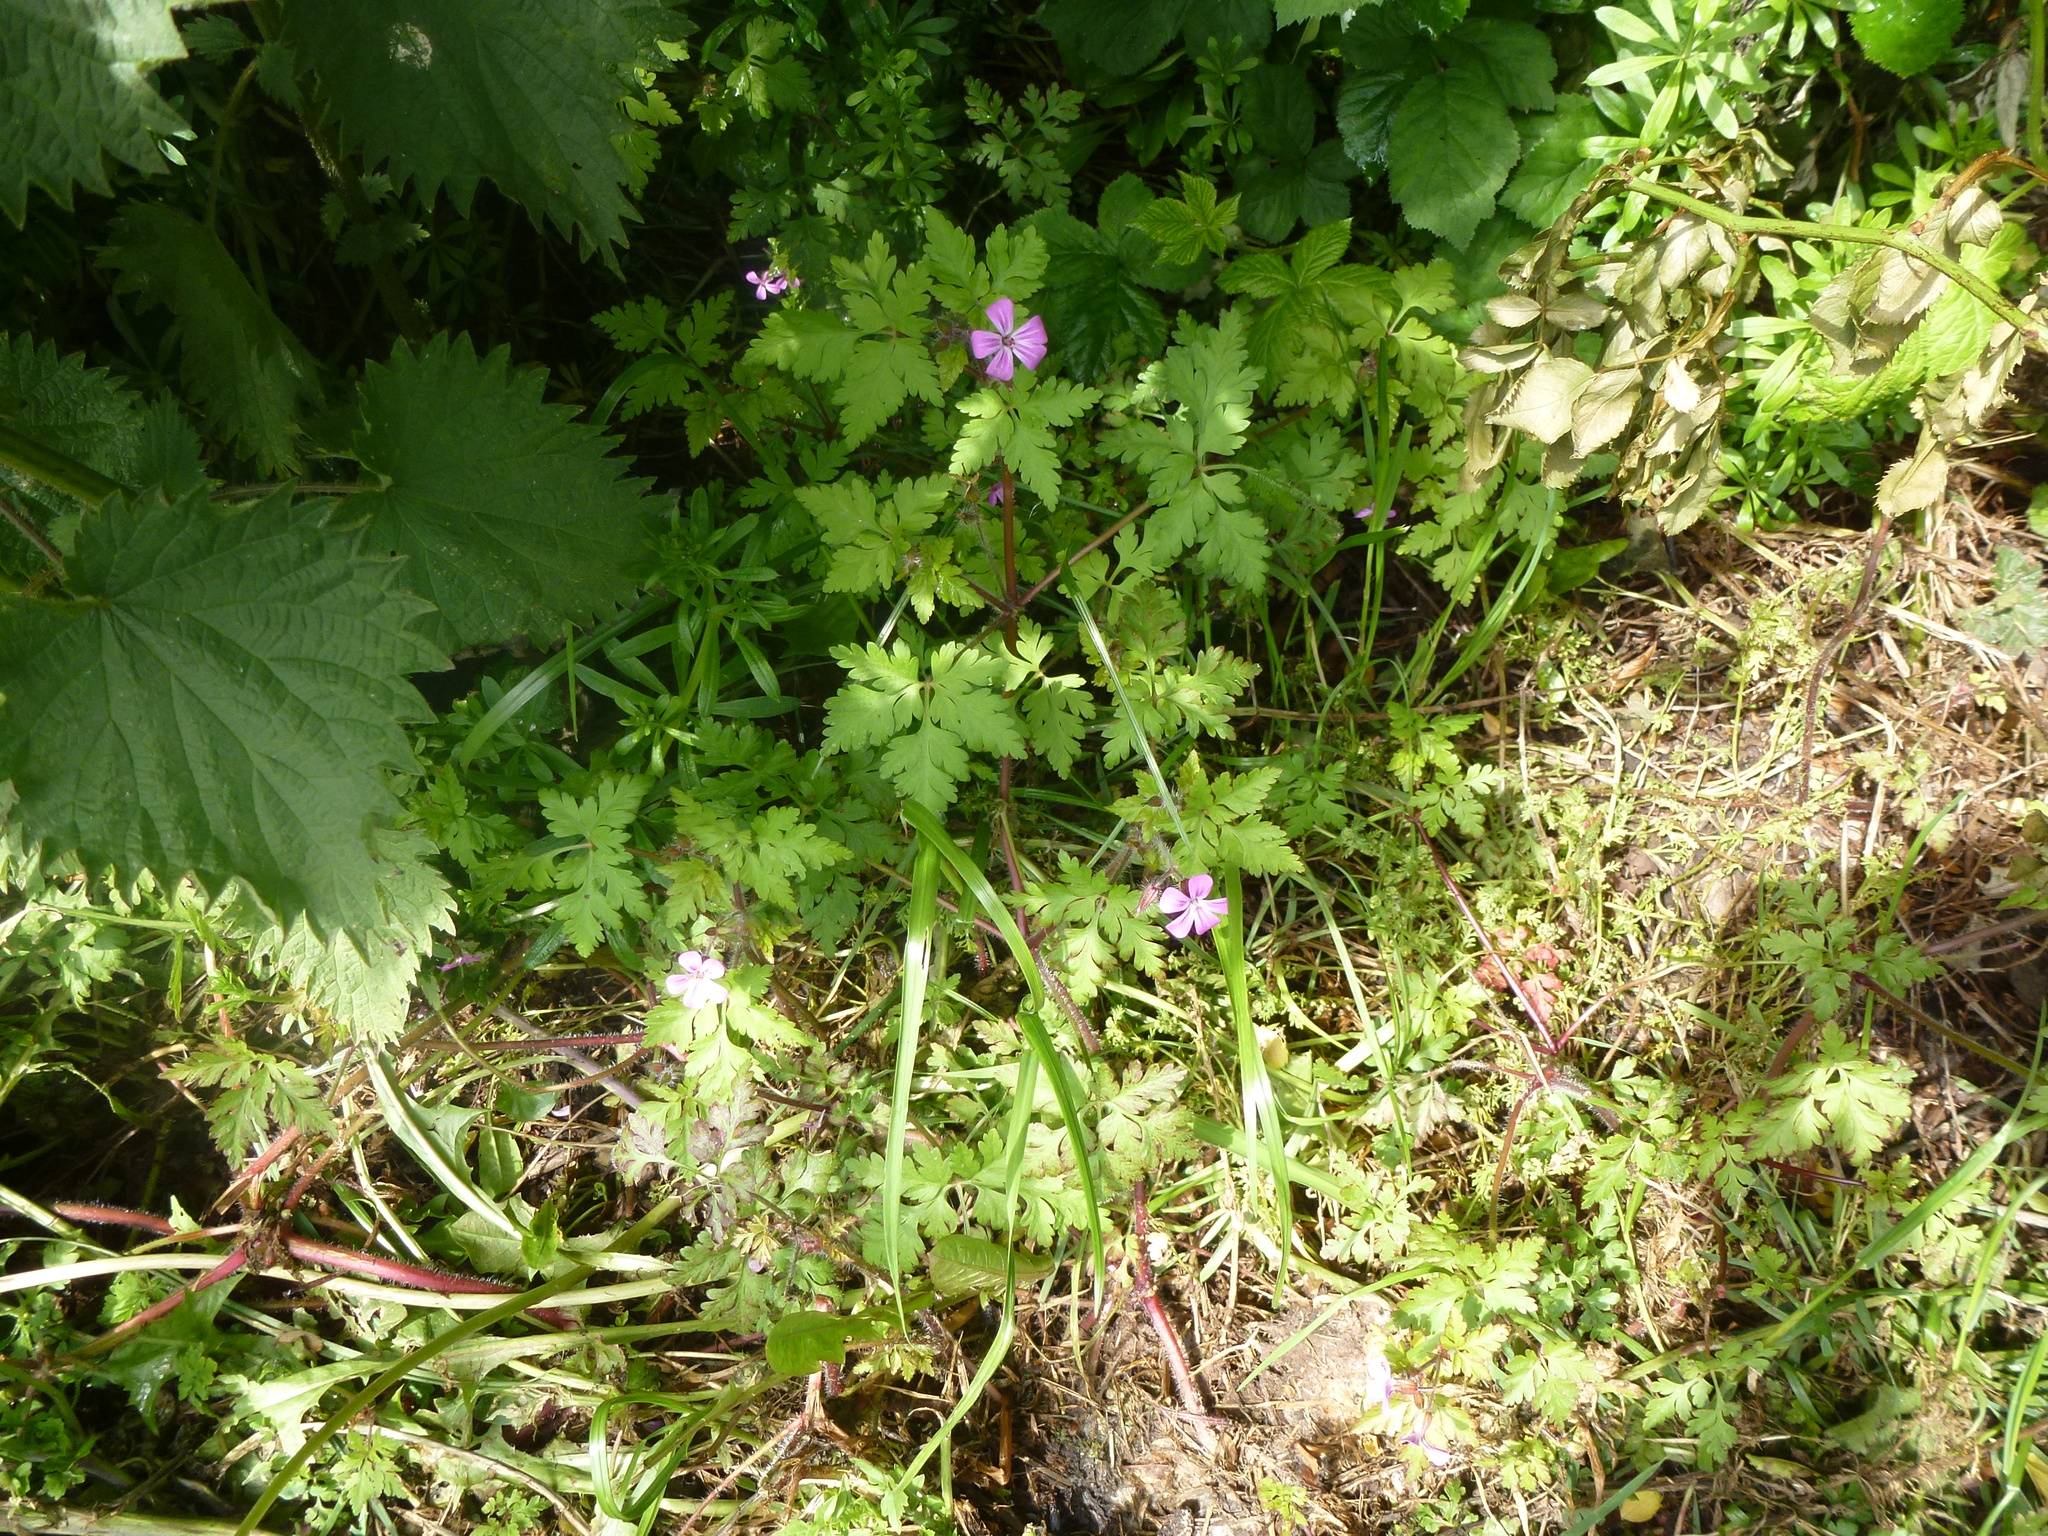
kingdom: Plantae
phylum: Tracheophyta
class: Magnoliopsida
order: Geraniales
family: Geraniaceae
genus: Geranium
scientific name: Geranium robertianum
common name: Herb-robert
